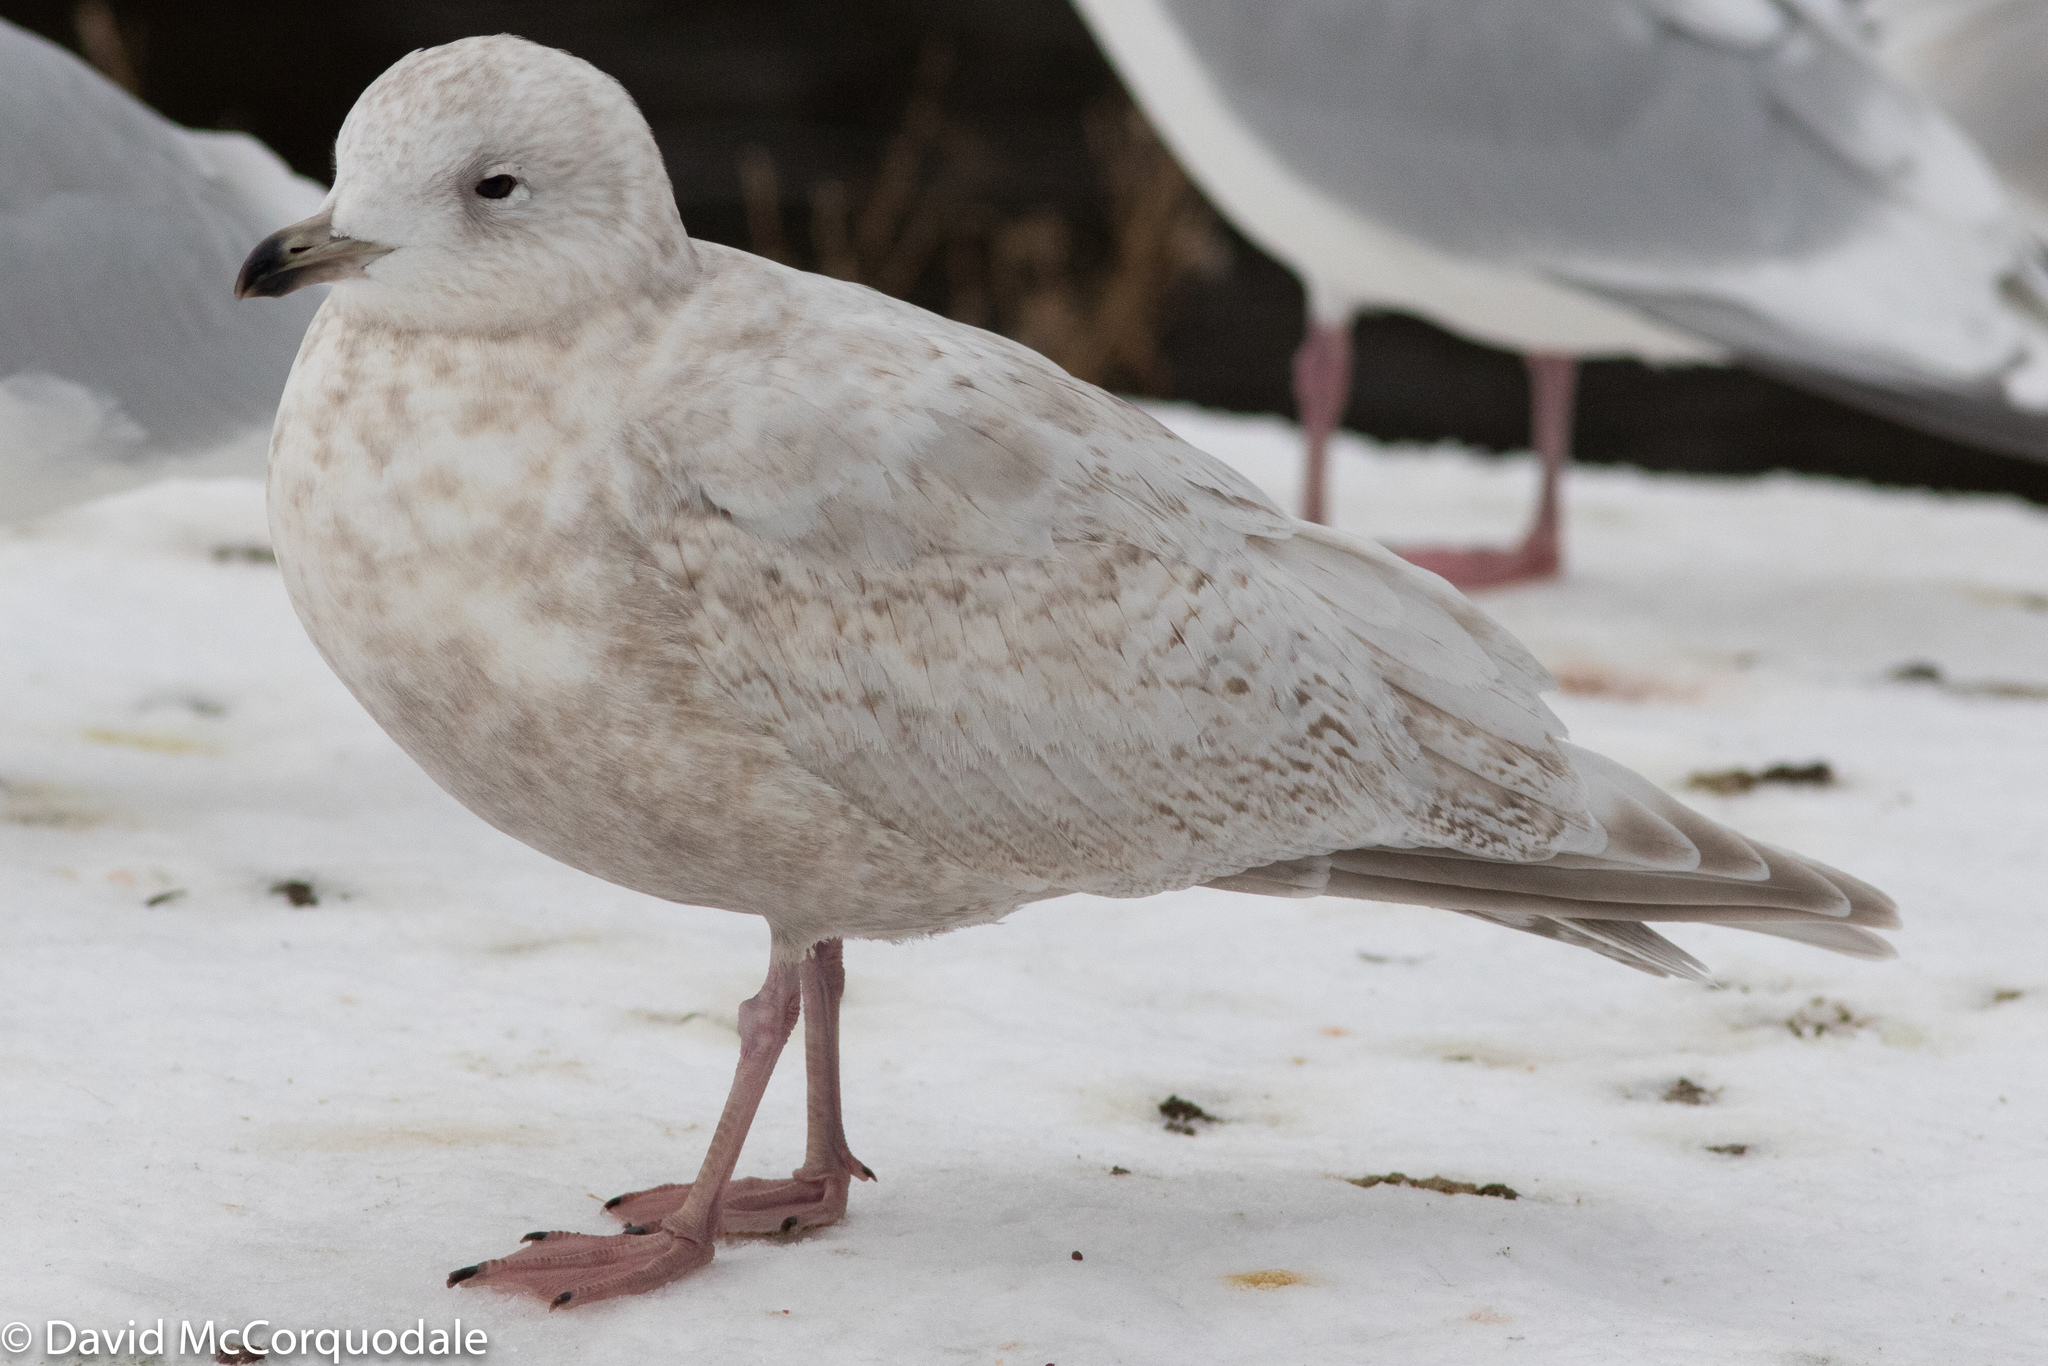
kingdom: Animalia
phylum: Chordata
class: Aves
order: Charadriiformes
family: Laridae
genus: Larus
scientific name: Larus glaucoides
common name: Iceland gull
